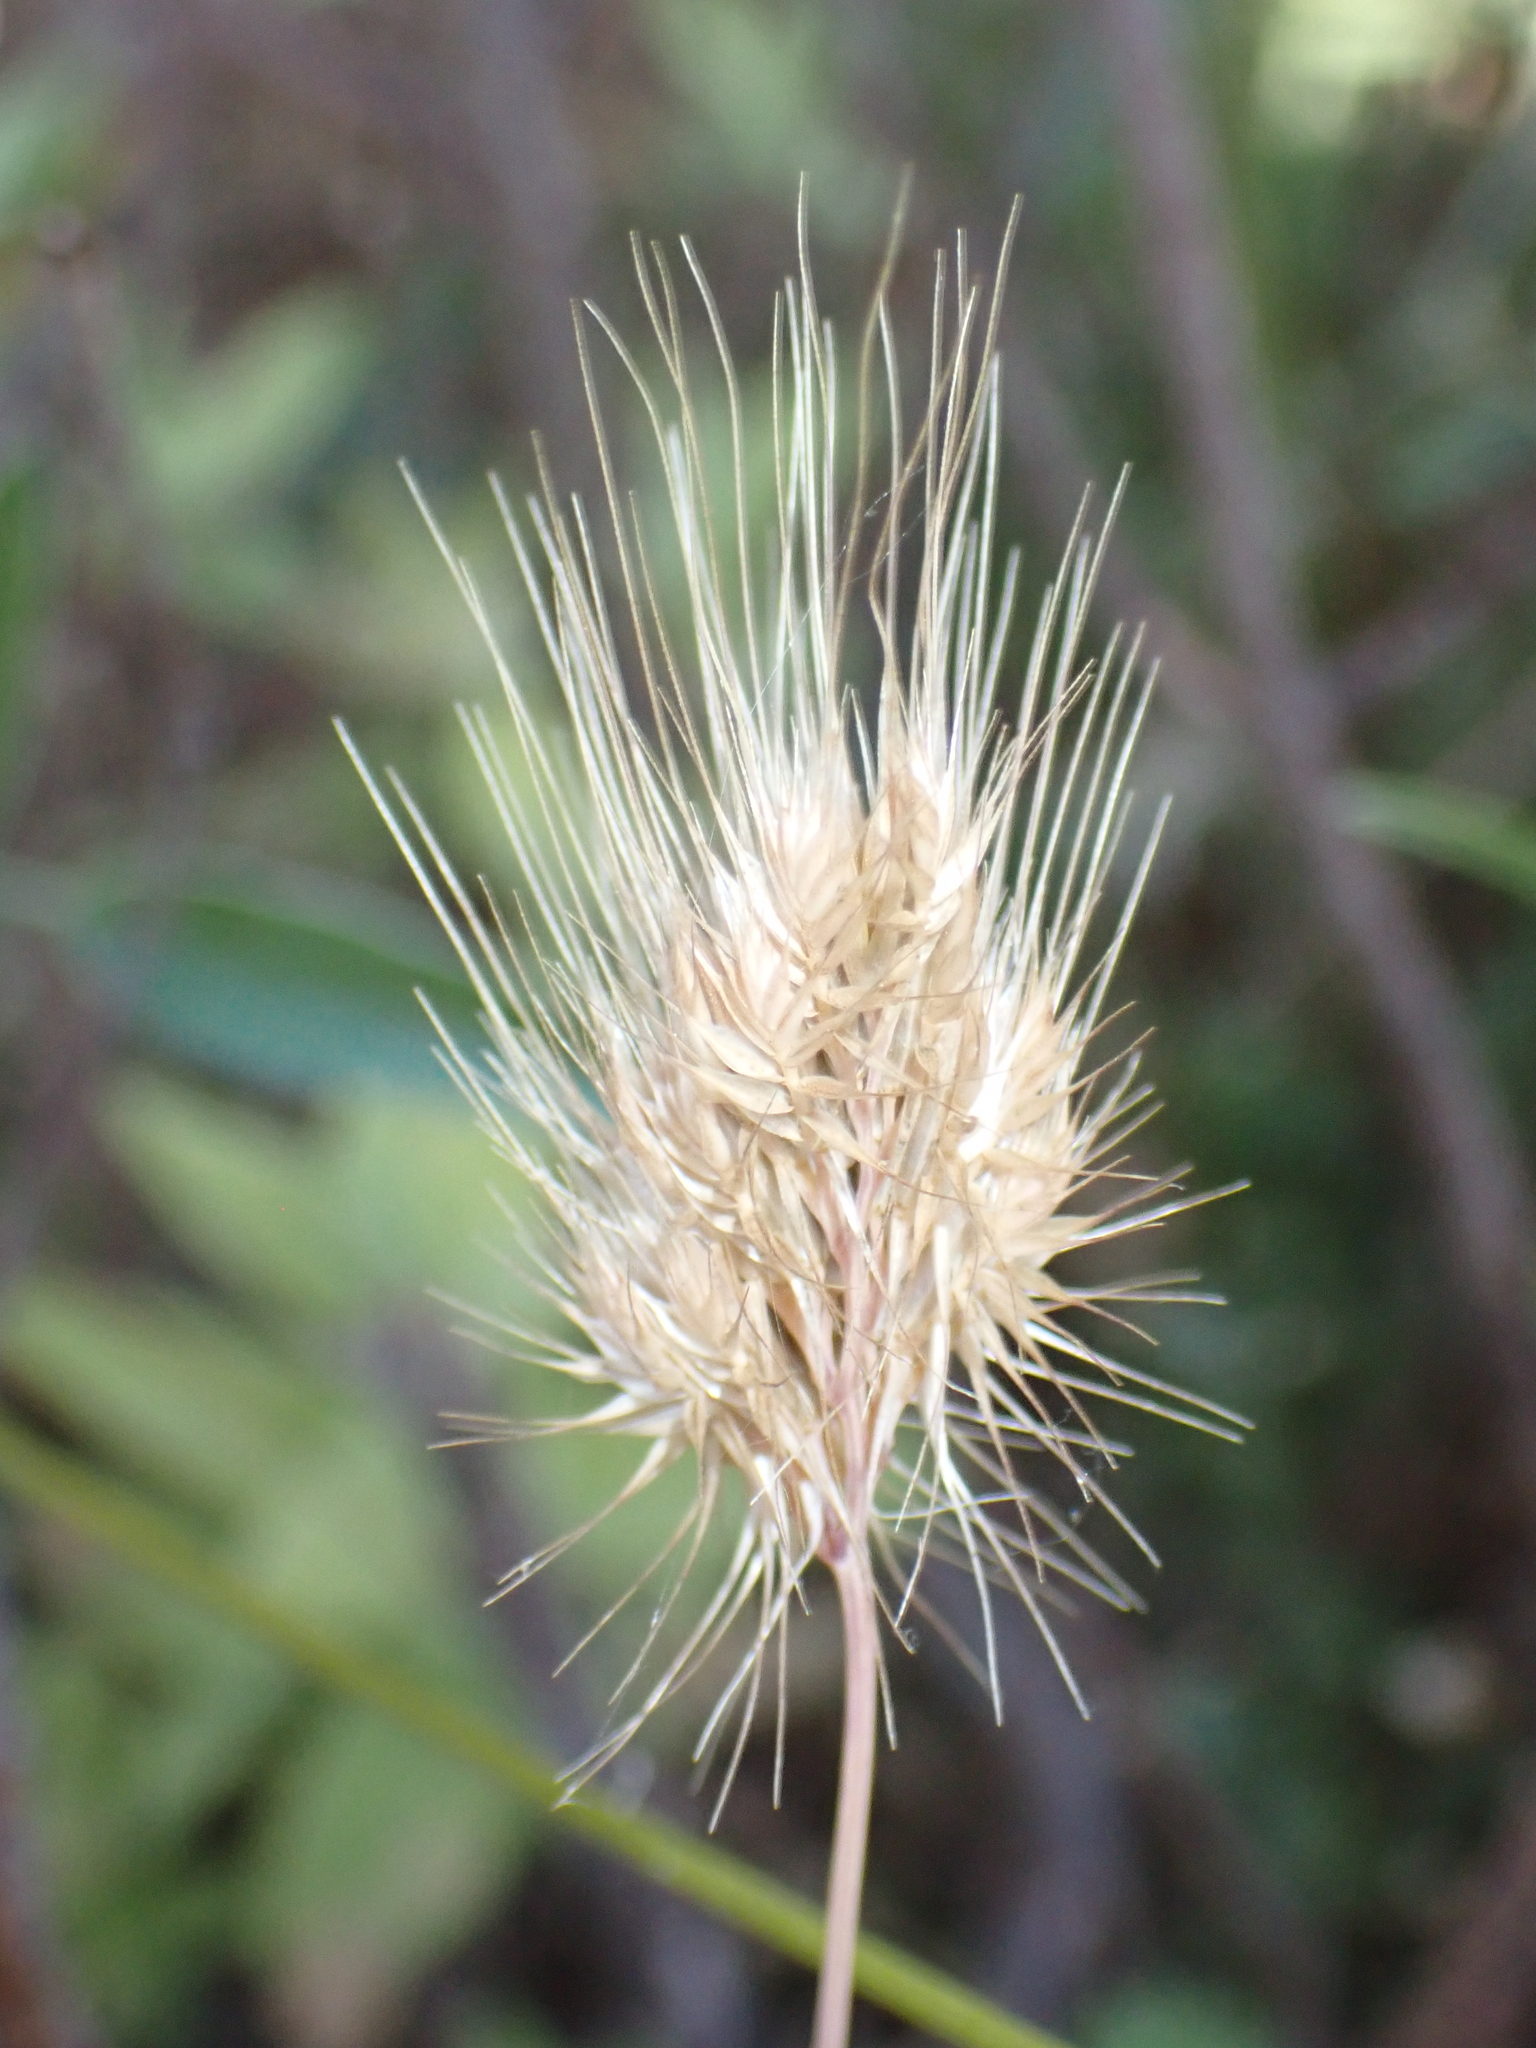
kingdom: Plantae
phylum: Tracheophyta
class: Liliopsida
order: Poales
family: Poaceae
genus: Cynosurus
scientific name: Cynosurus echinatus
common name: Rough dog's-tail
